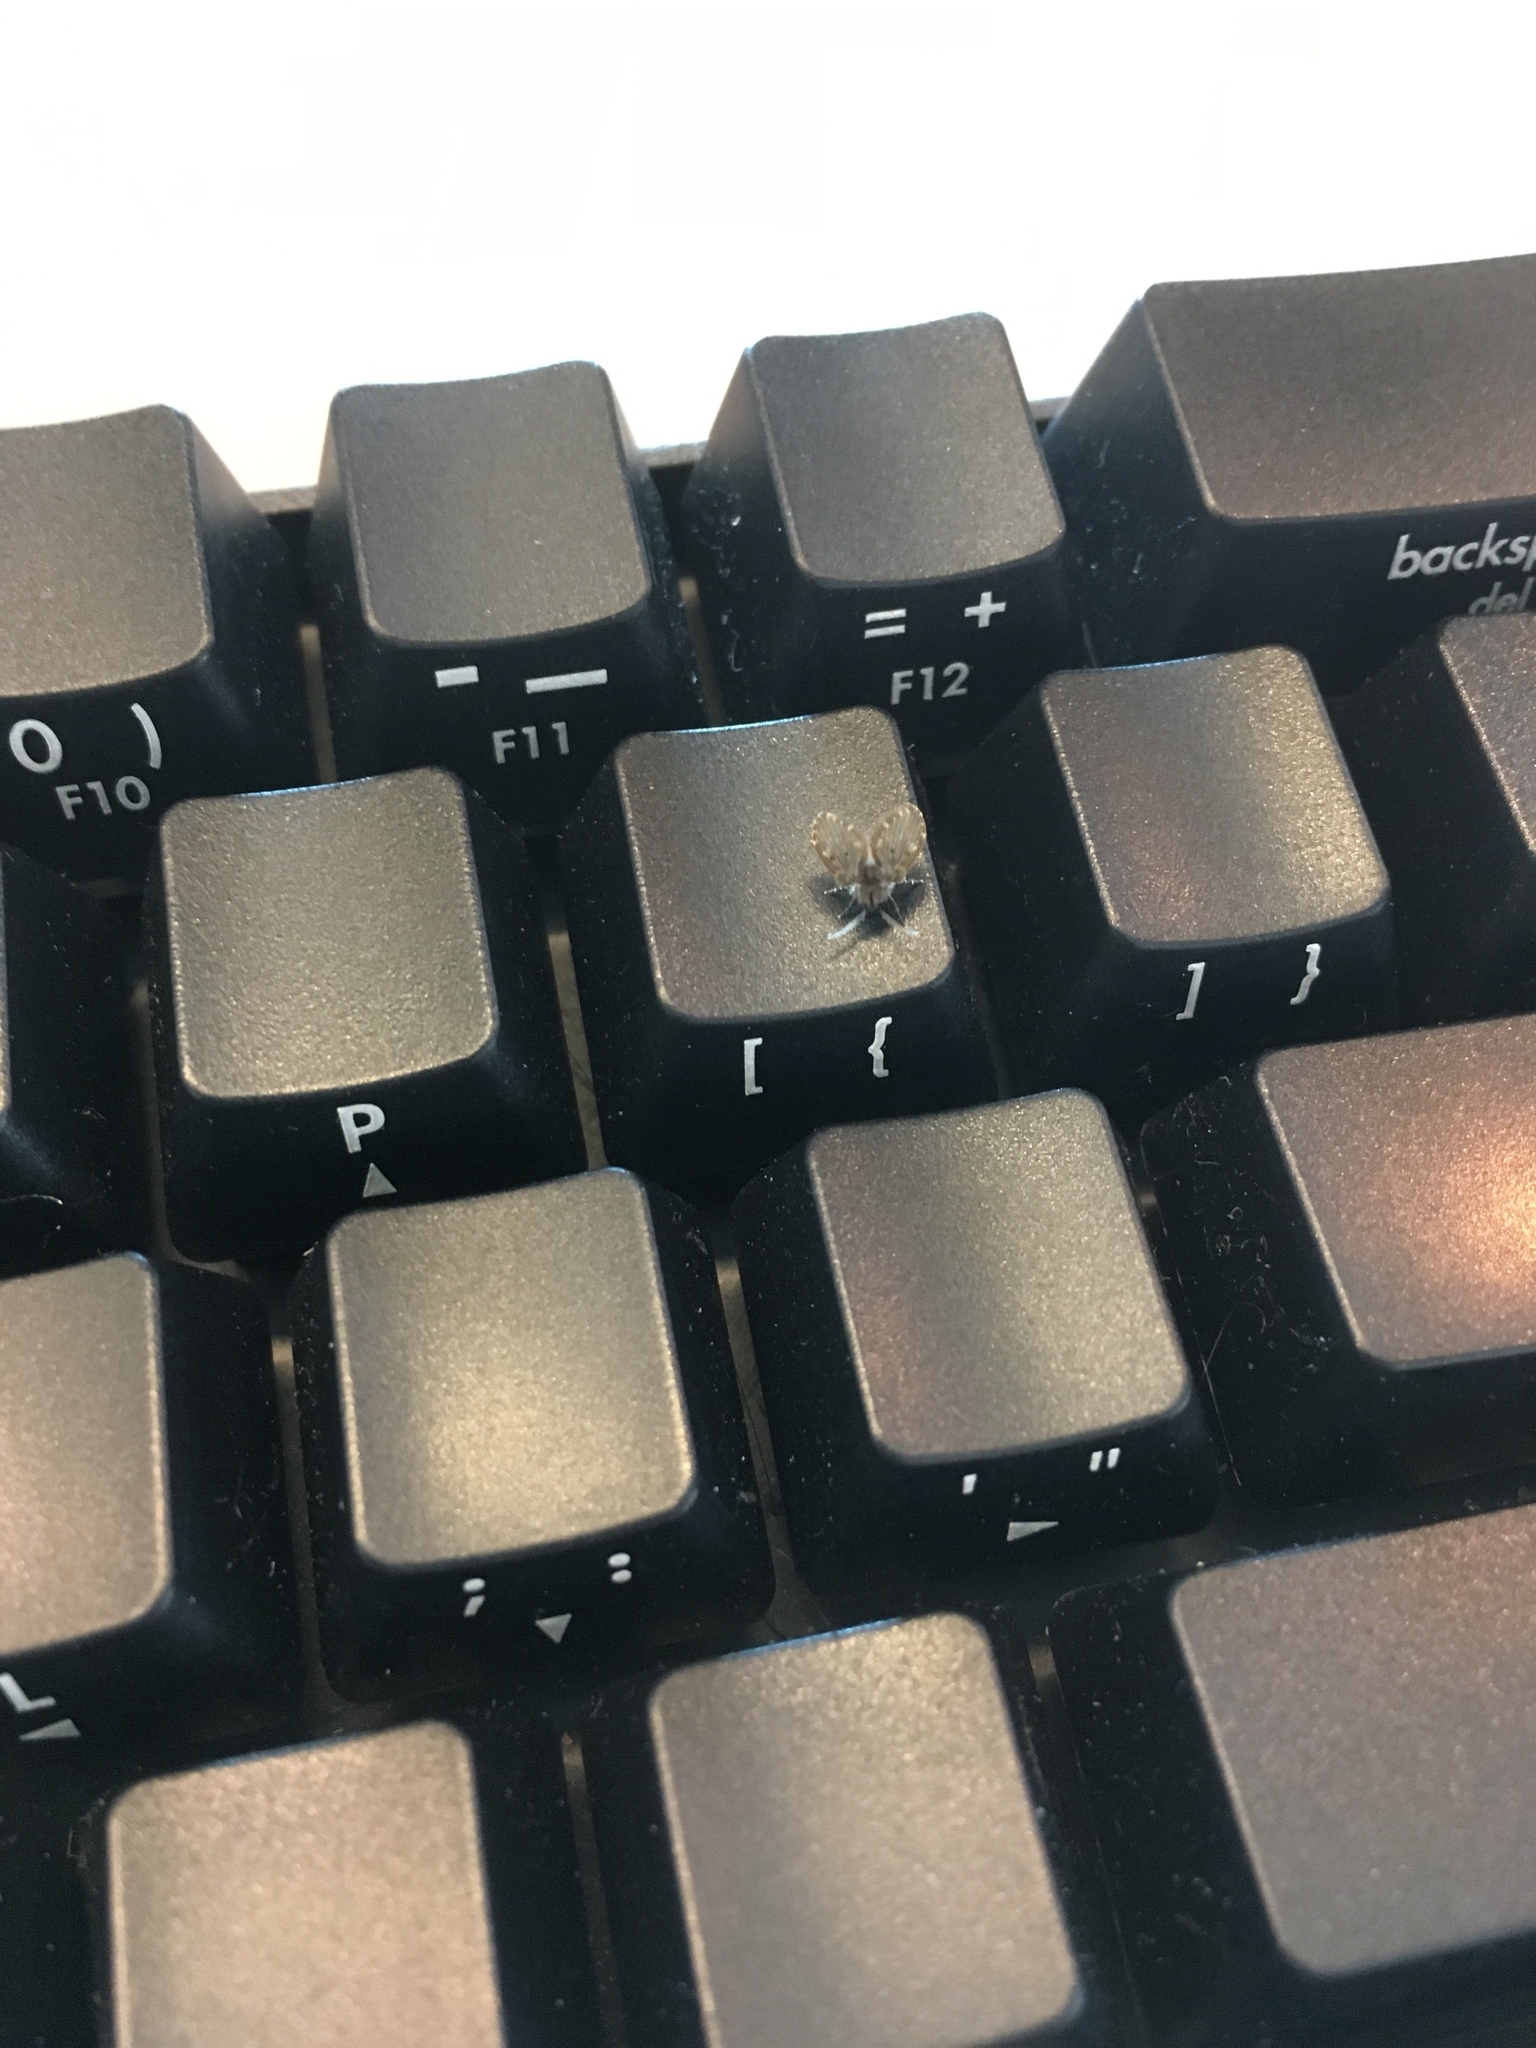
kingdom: Animalia
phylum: Arthropoda
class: Insecta
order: Diptera
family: Psychodidae
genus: Clogmia
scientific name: Clogmia albipunctatus
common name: White-spotted moth fly
